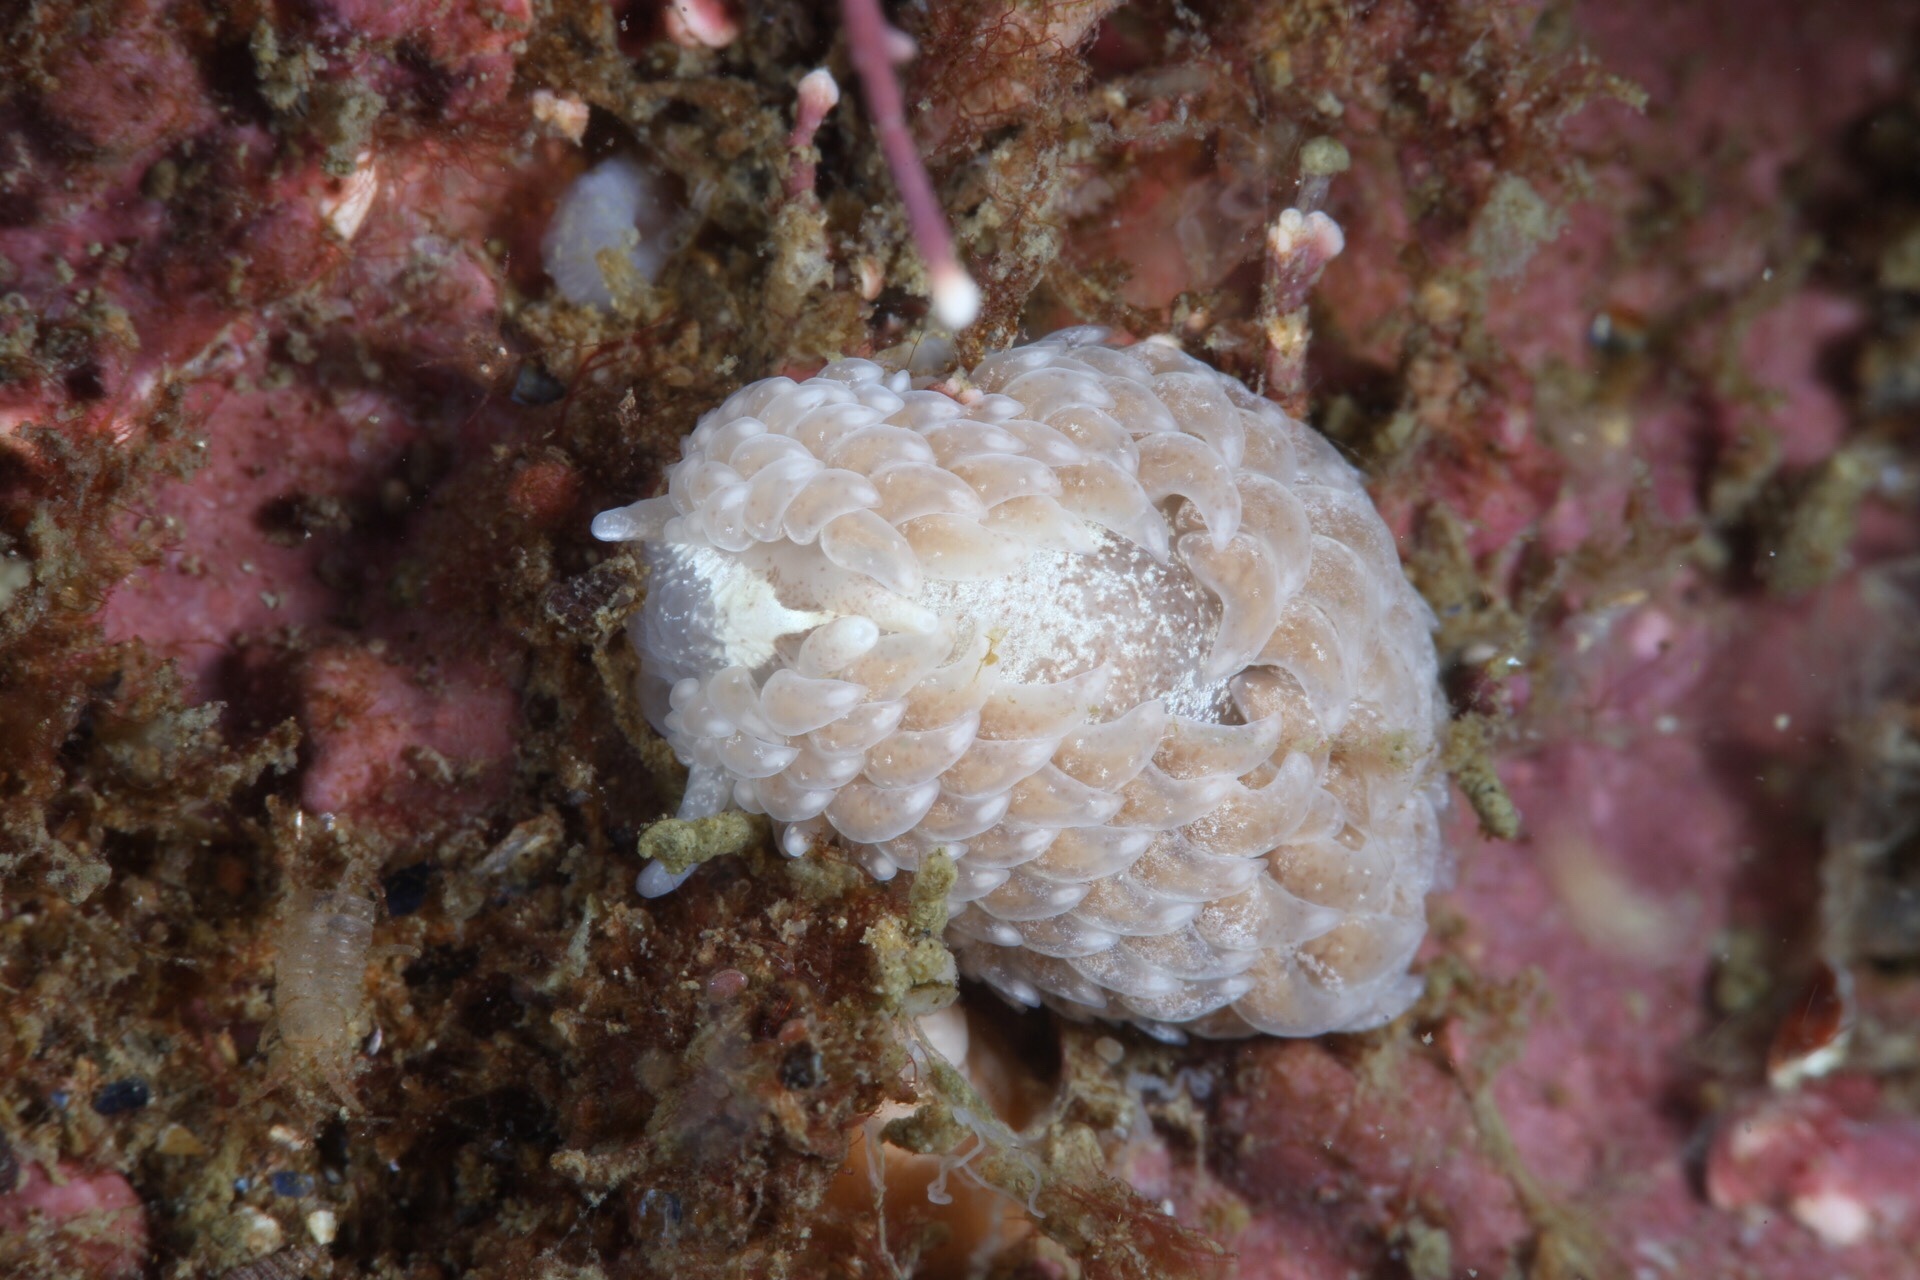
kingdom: Animalia
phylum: Mollusca
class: Gastropoda
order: Nudibranchia
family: Aeolidiidae
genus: Aeolidia
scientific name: Aeolidia filomenae
